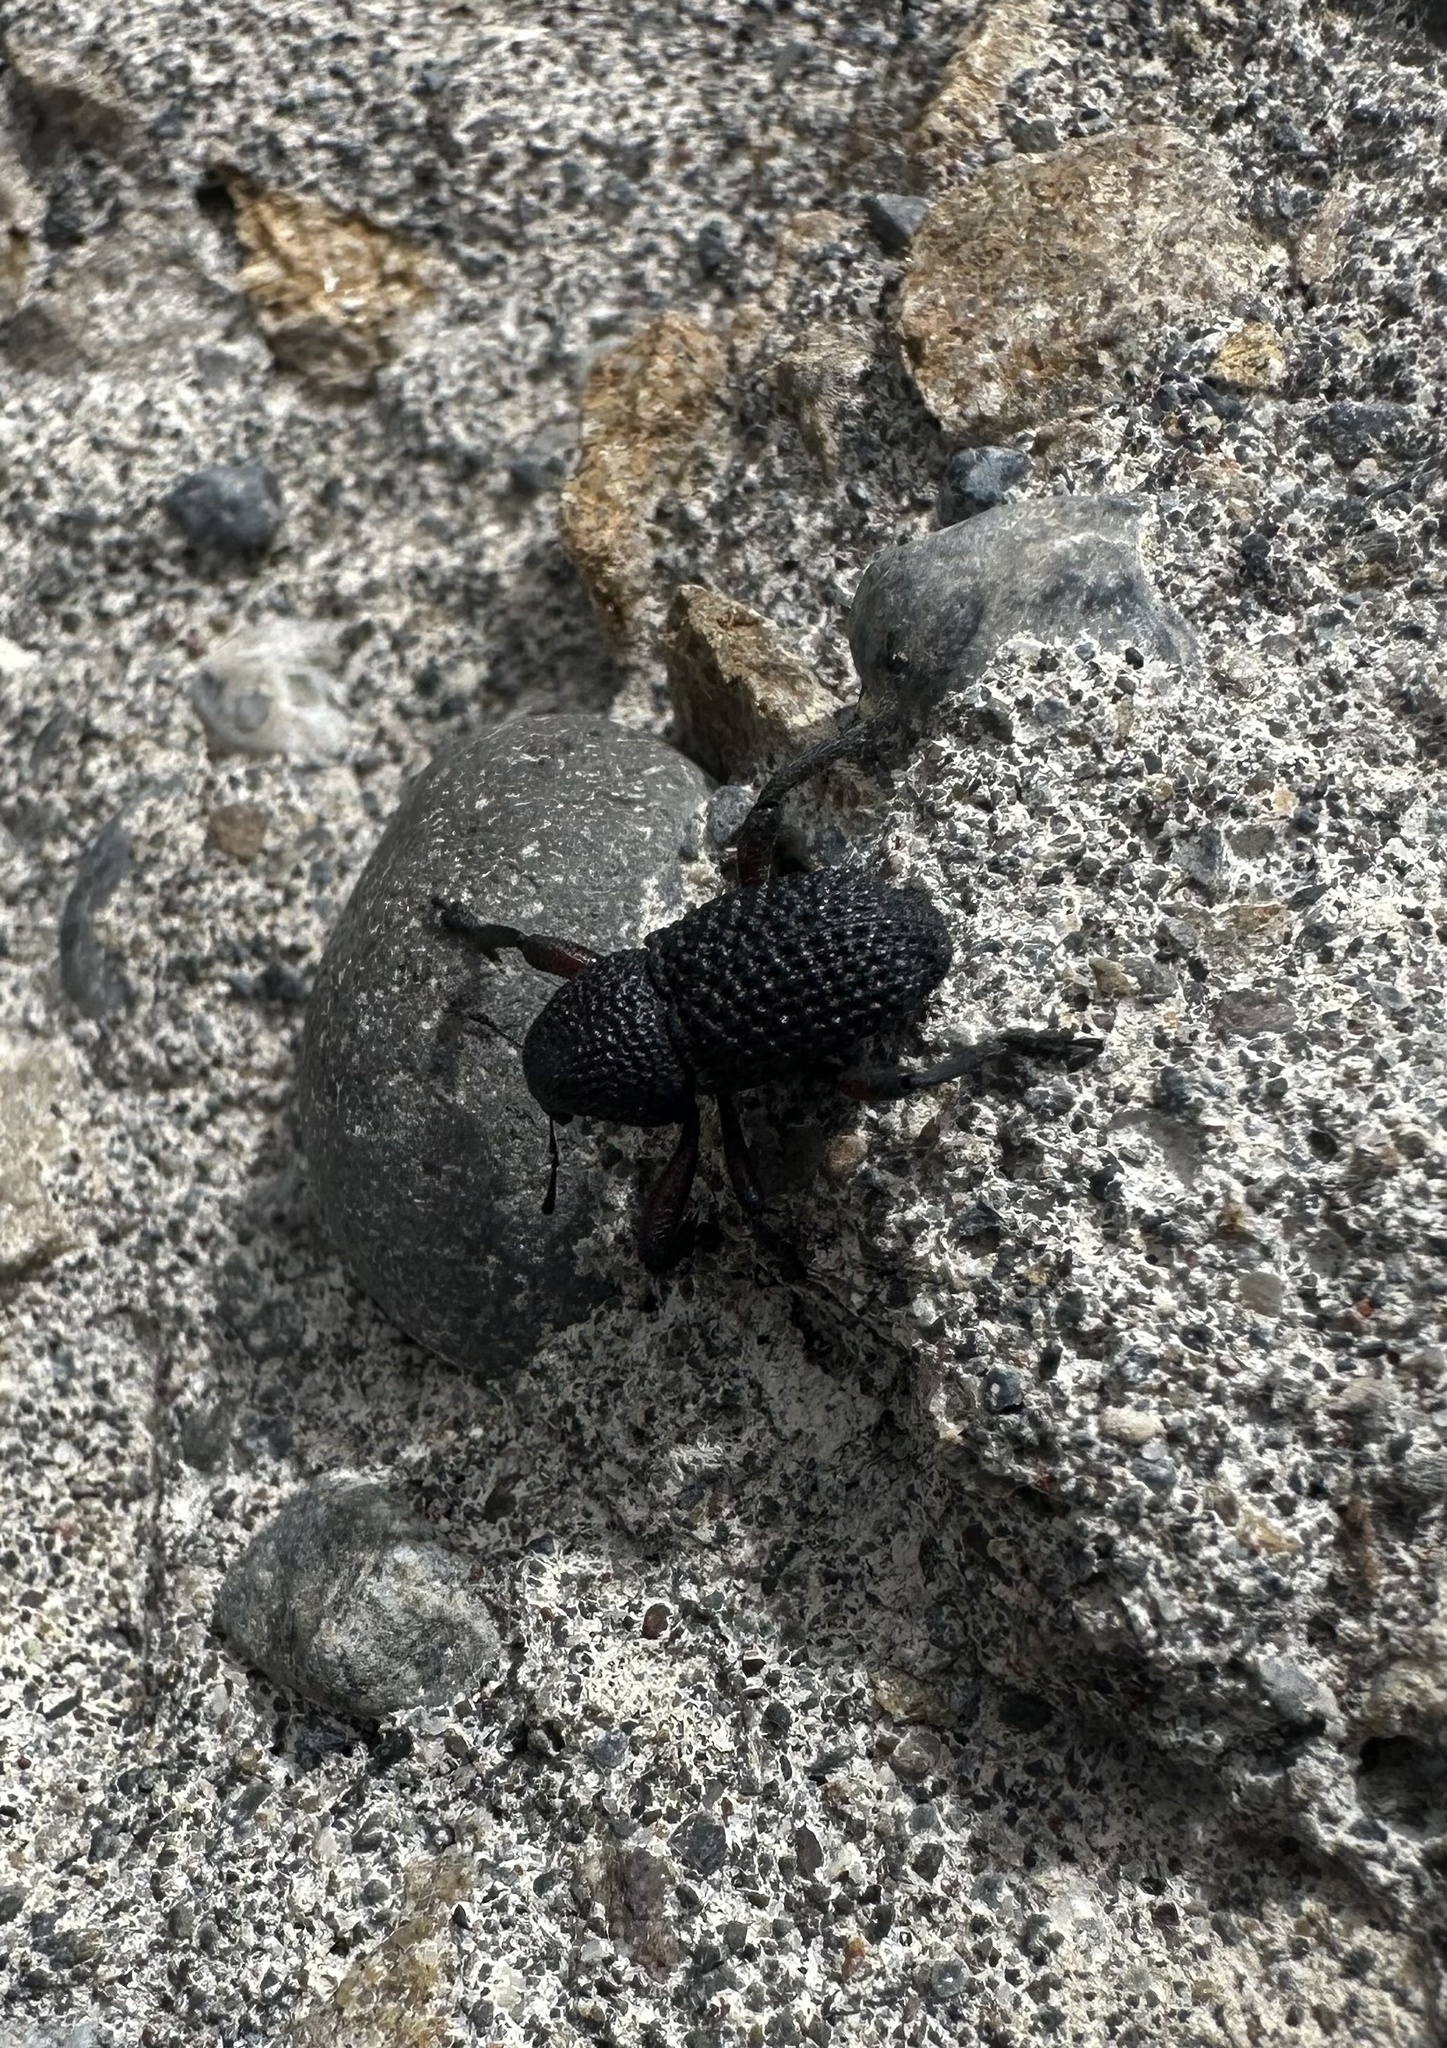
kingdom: Animalia
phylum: Arthropoda
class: Insecta
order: Coleoptera
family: Curculionidae
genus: Rhyephenes
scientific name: Rhyephenes goureaui
